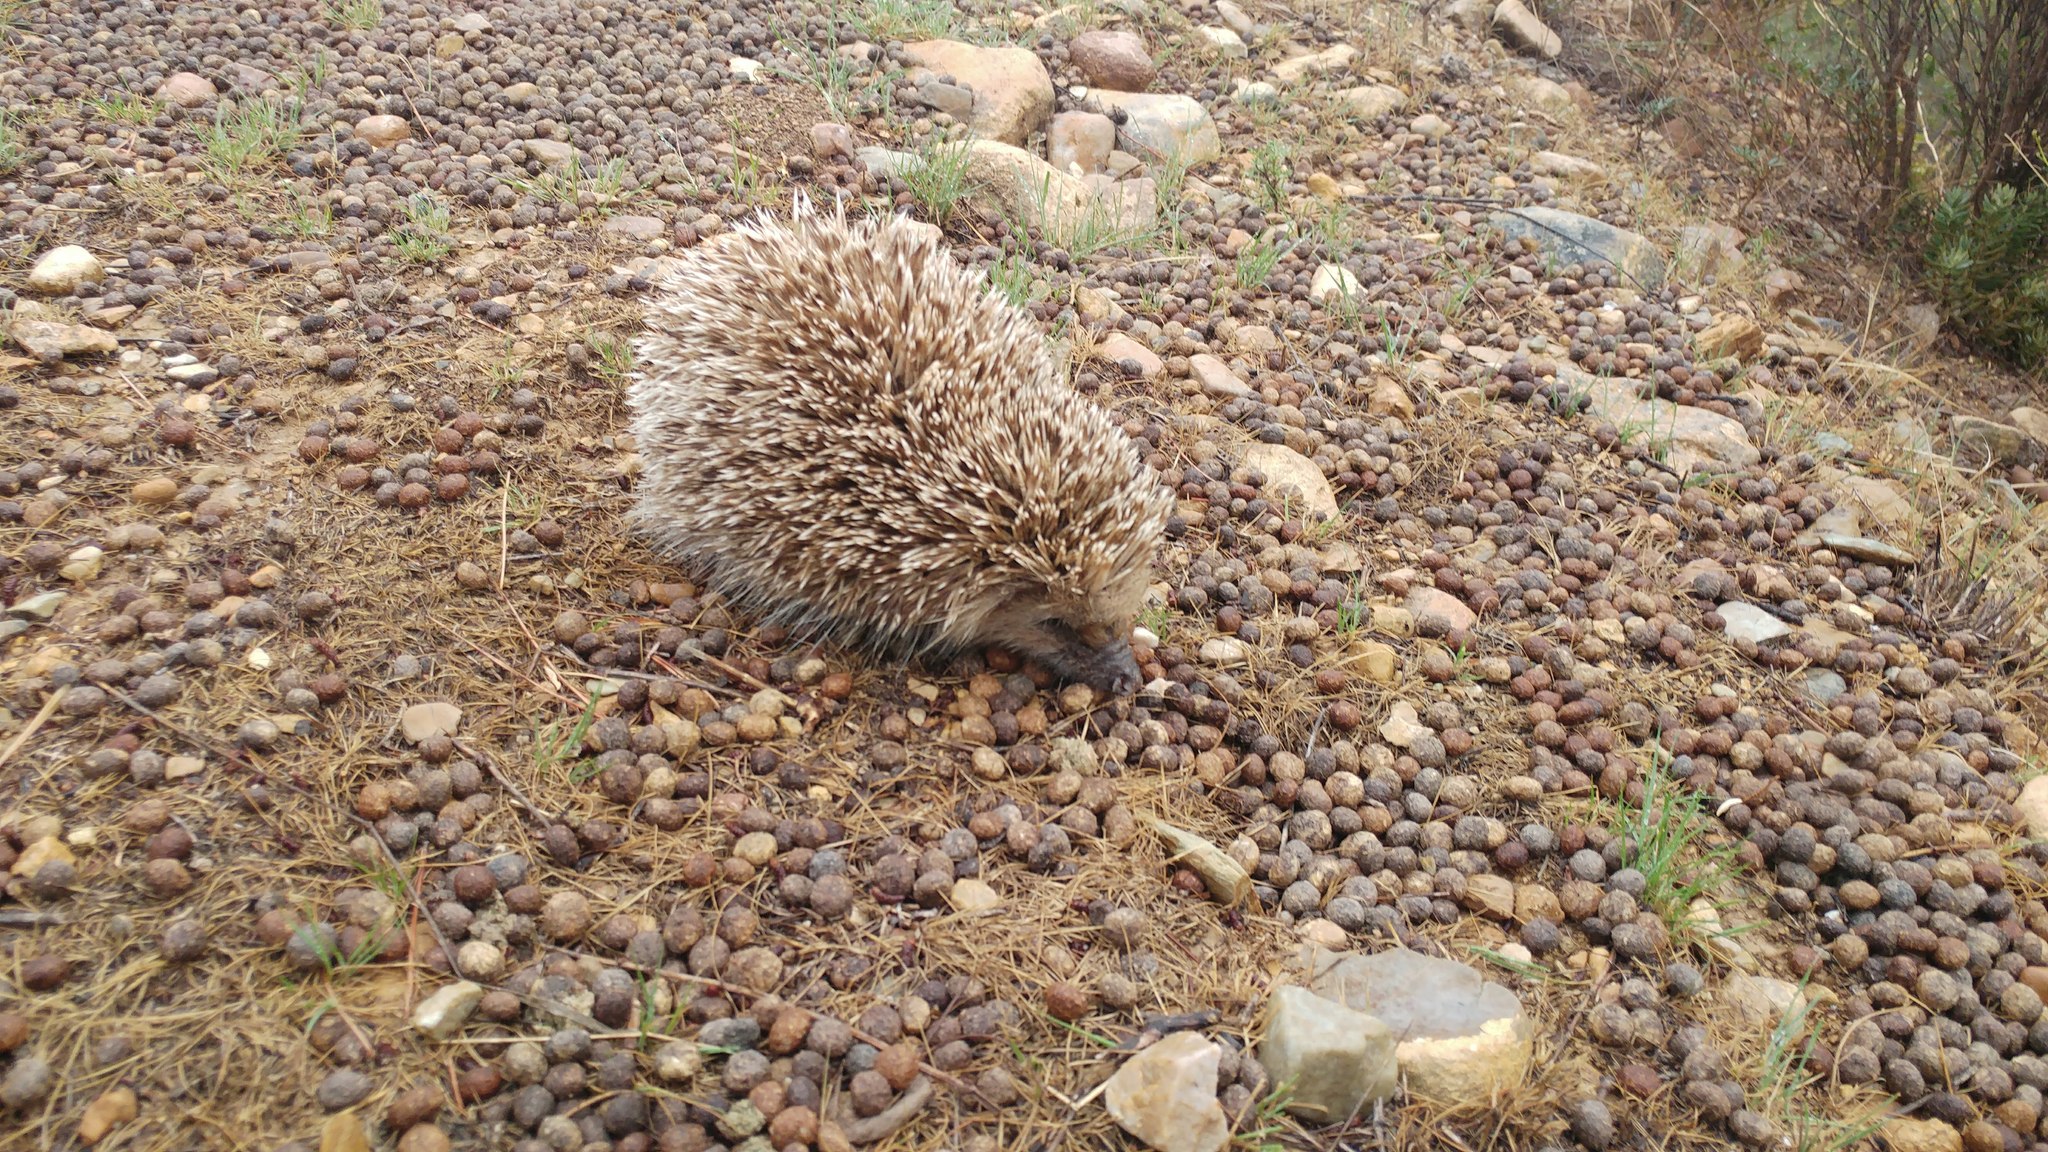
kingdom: Animalia
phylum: Chordata
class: Mammalia
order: Erinaceomorpha
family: Erinaceidae
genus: Erinaceus
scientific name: Erinaceus europaeus
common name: West european hedgehog
